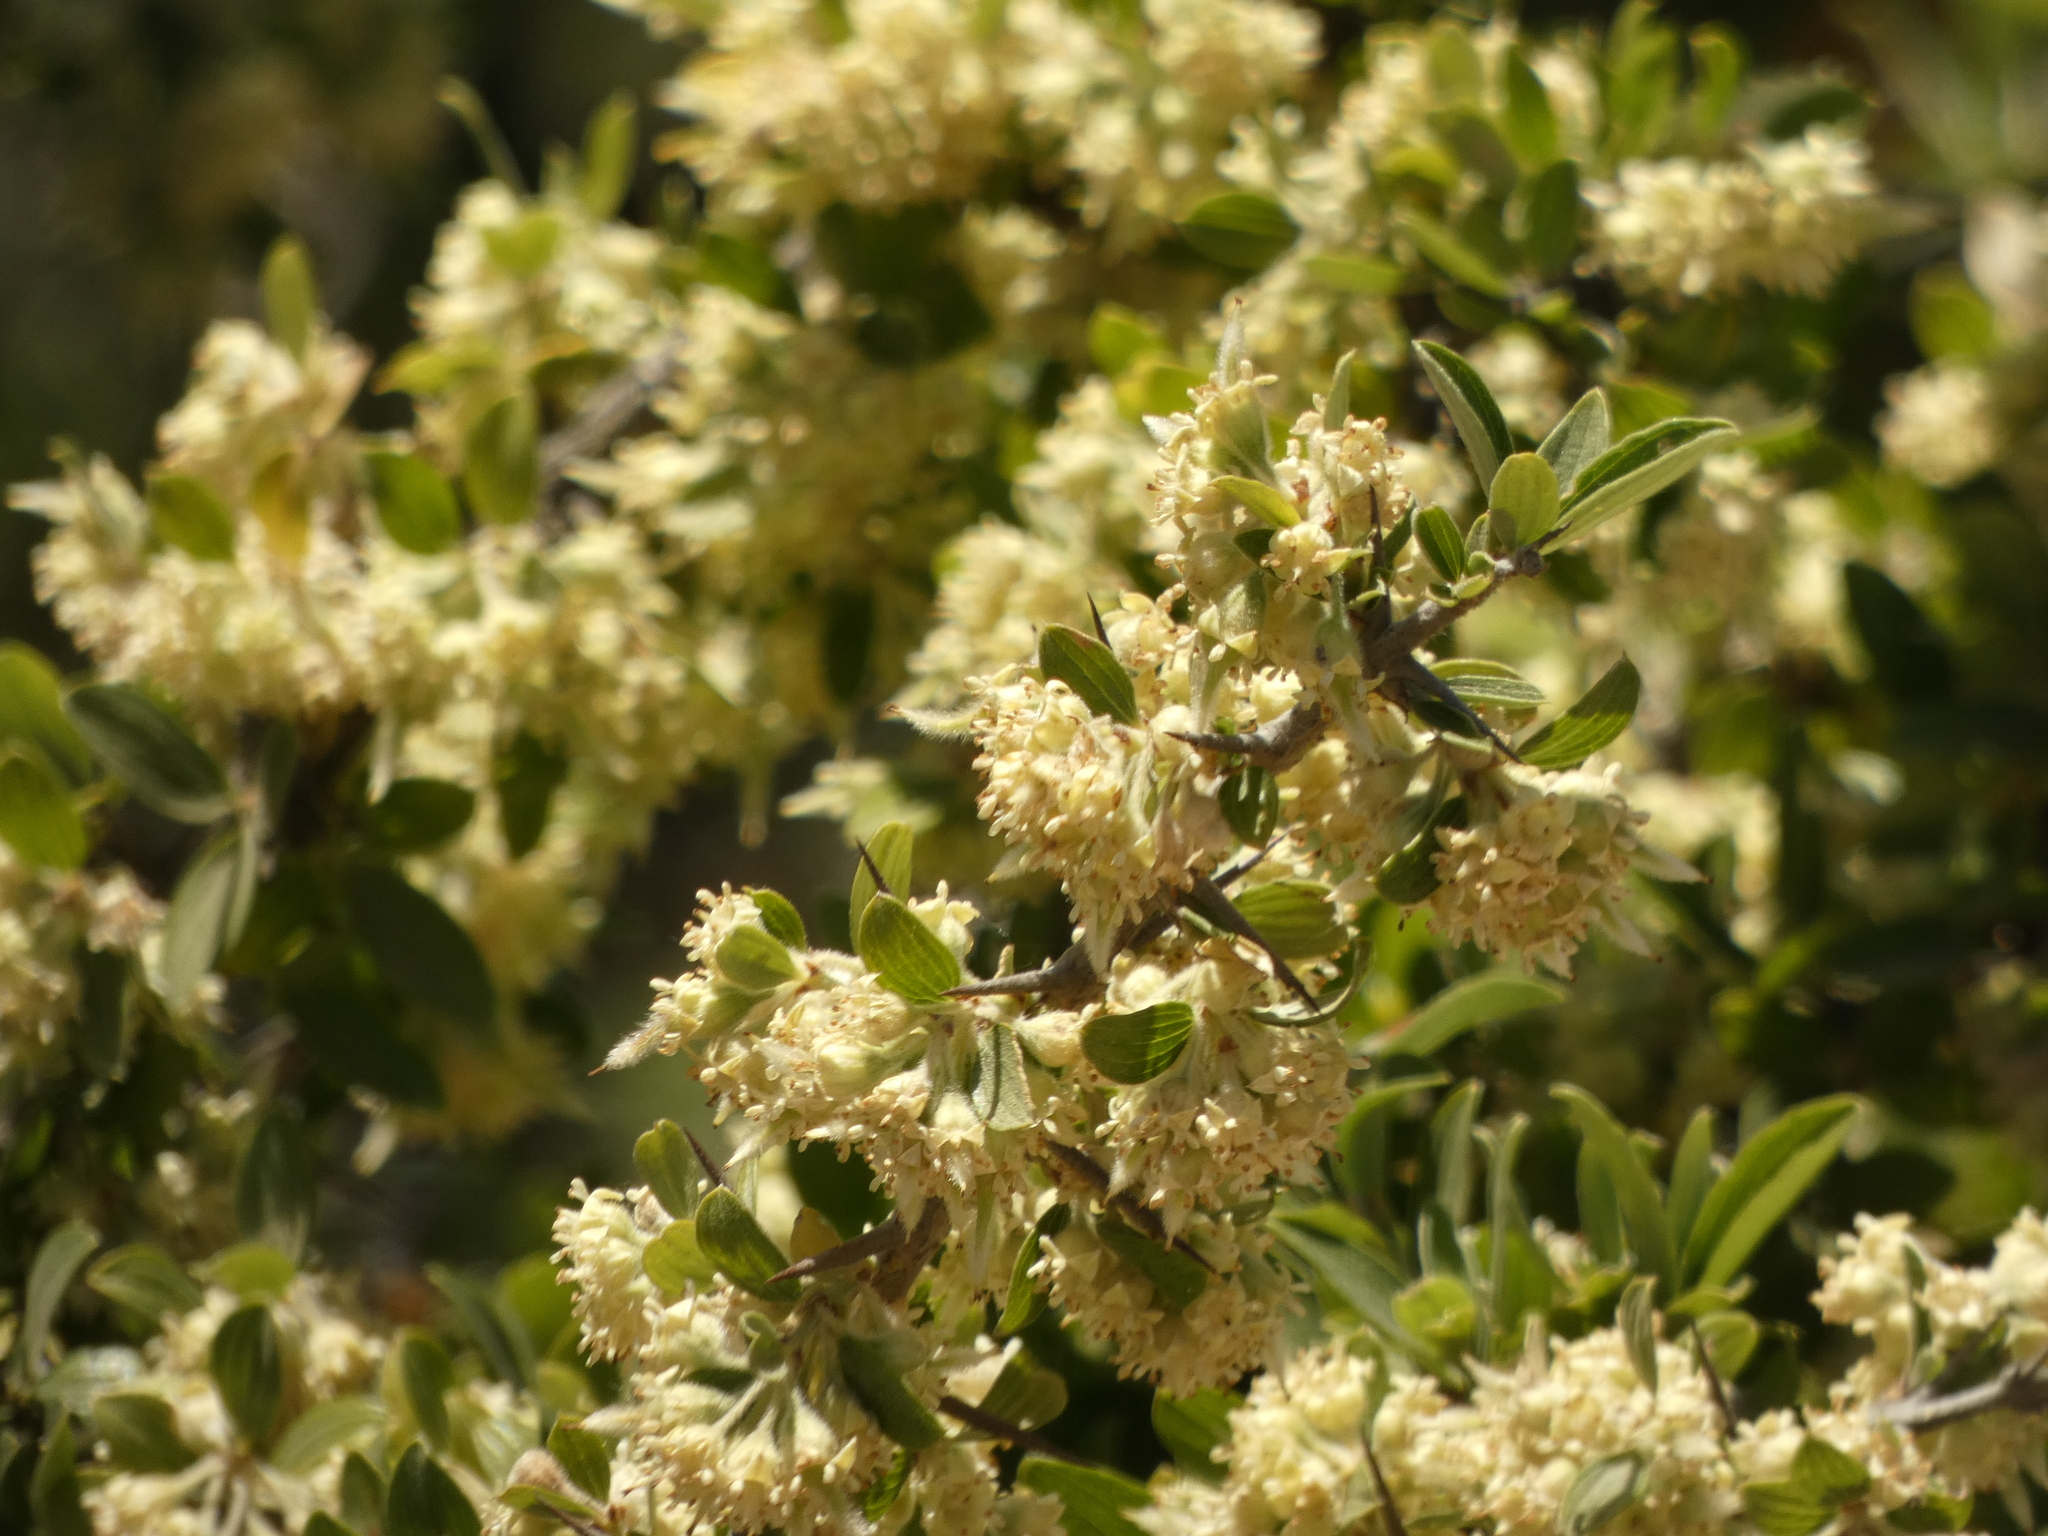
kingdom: Plantae
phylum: Tracheophyta
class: Magnoliopsida
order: Rosales
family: Rhamnaceae
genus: Trevoa
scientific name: Trevoa quinquenervia
